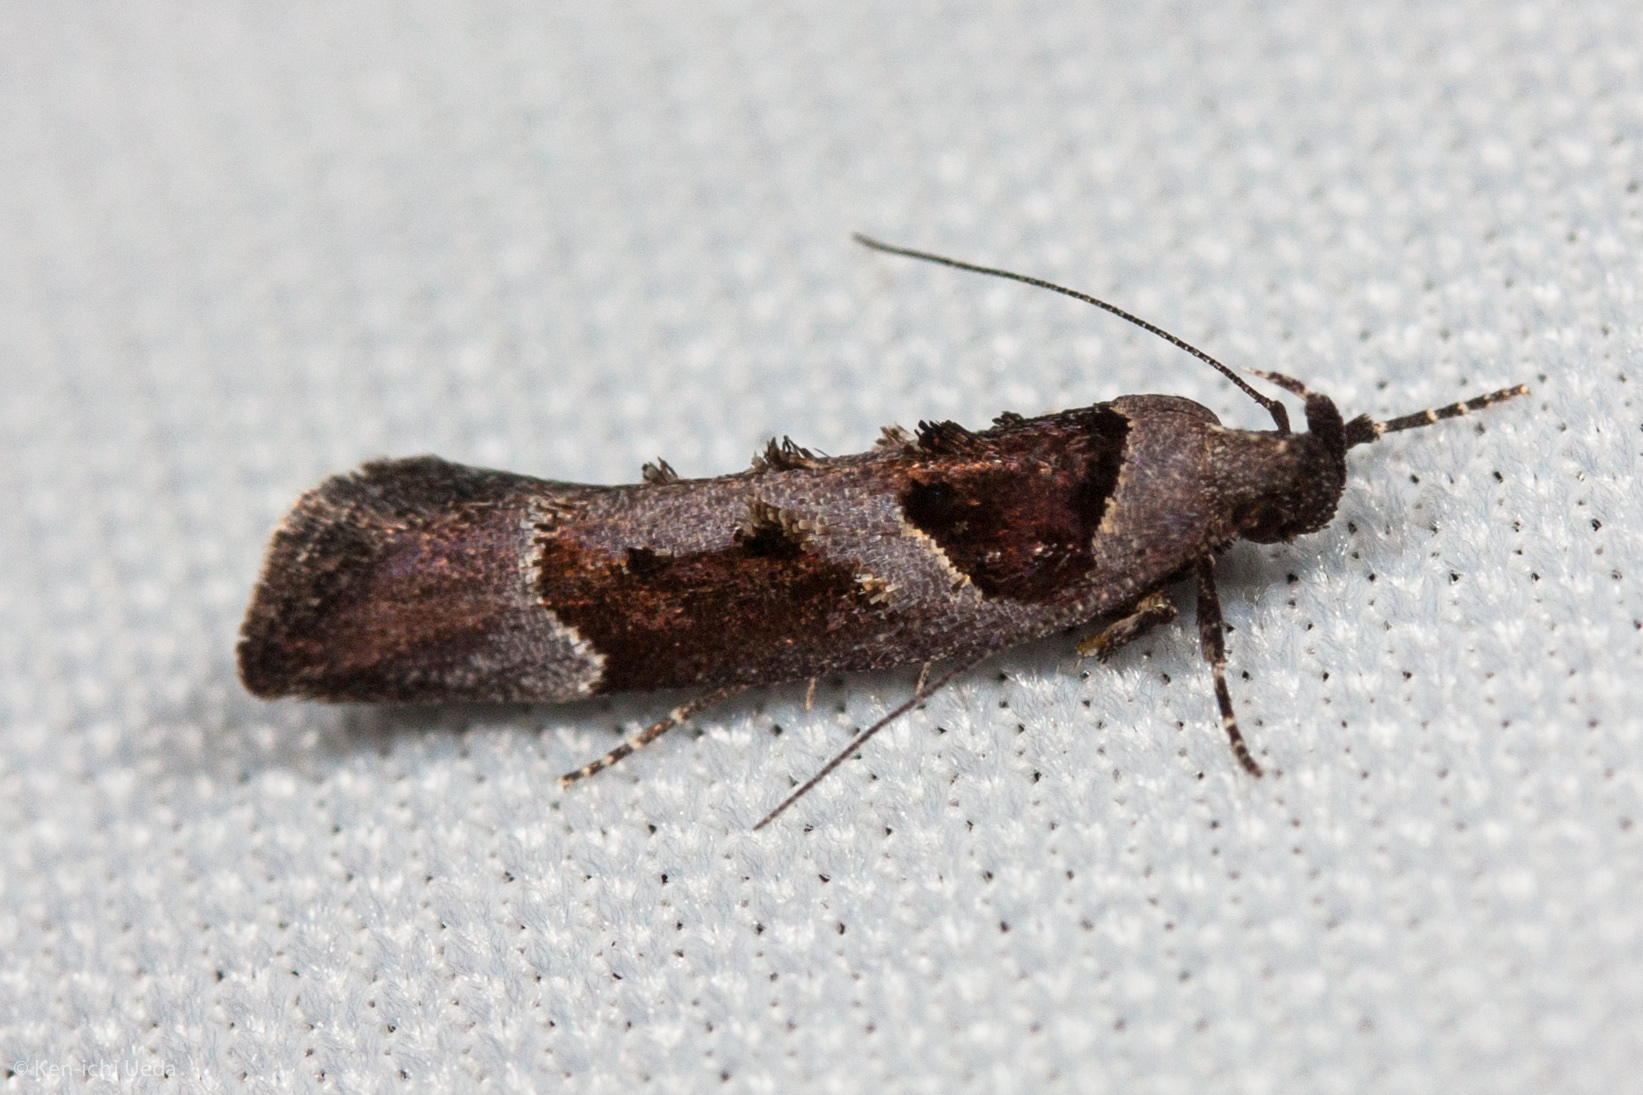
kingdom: Animalia
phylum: Arthropoda
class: Insecta
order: Lepidoptera
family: Gelechiidae
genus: Pseudochelaria
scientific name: Pseudochelaria scabrella
